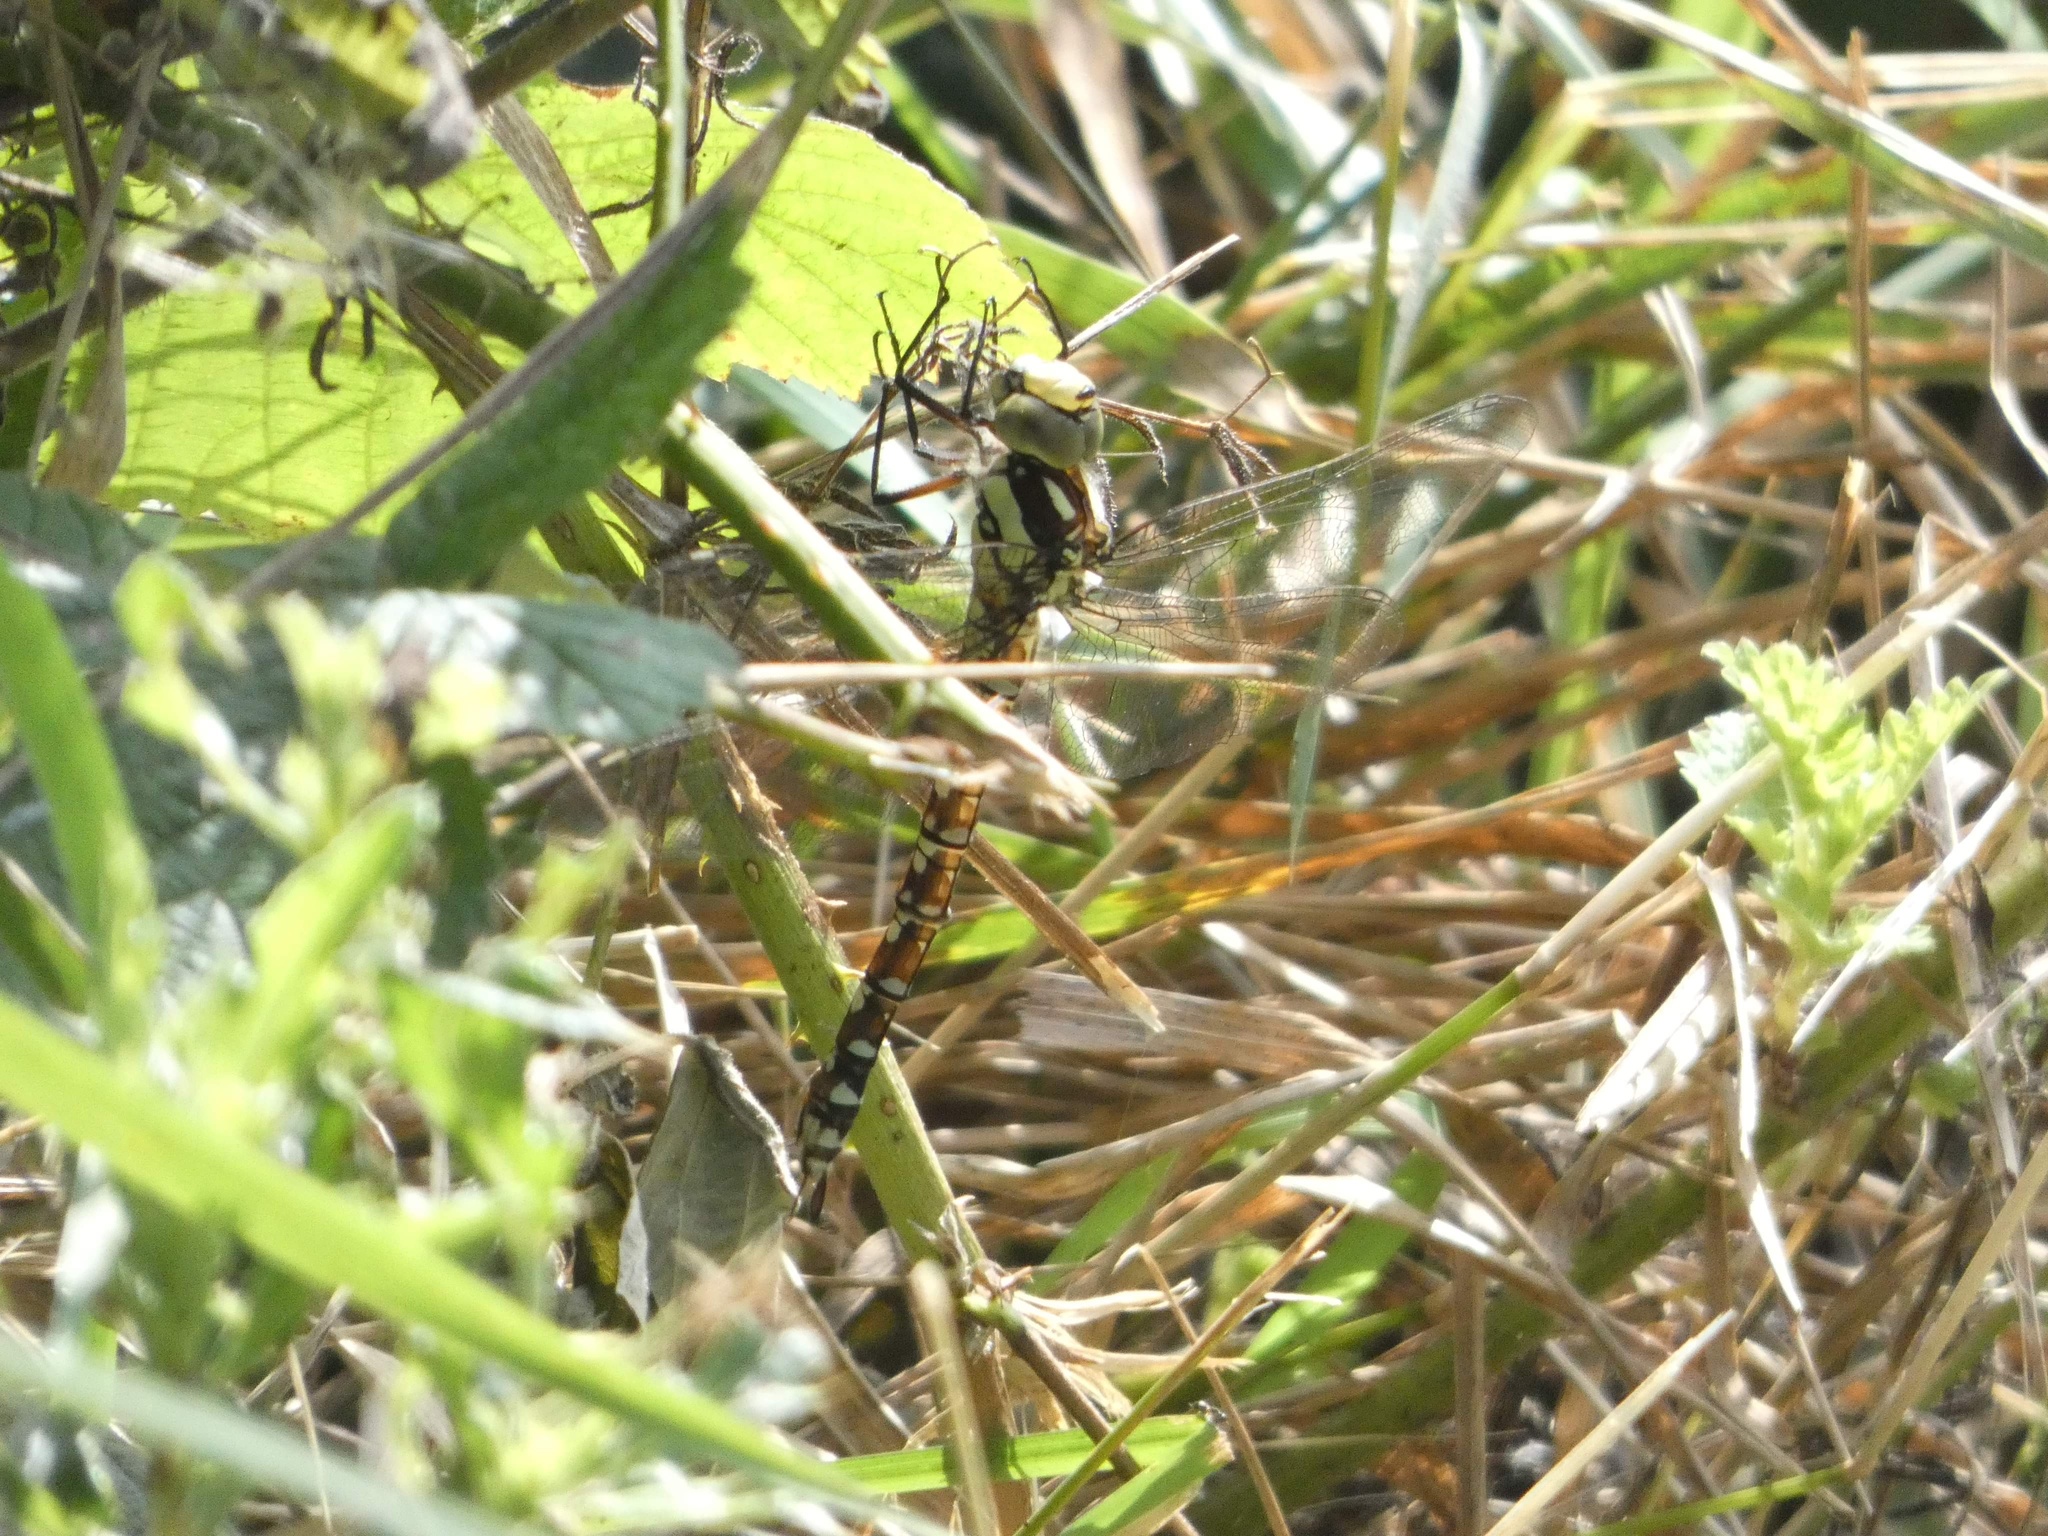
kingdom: Animalia
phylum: Arthropoda
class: Insecta
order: Odonata
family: Aeshnidae
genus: Aeshna
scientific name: Aeshna cyanea
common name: Southern hawker
